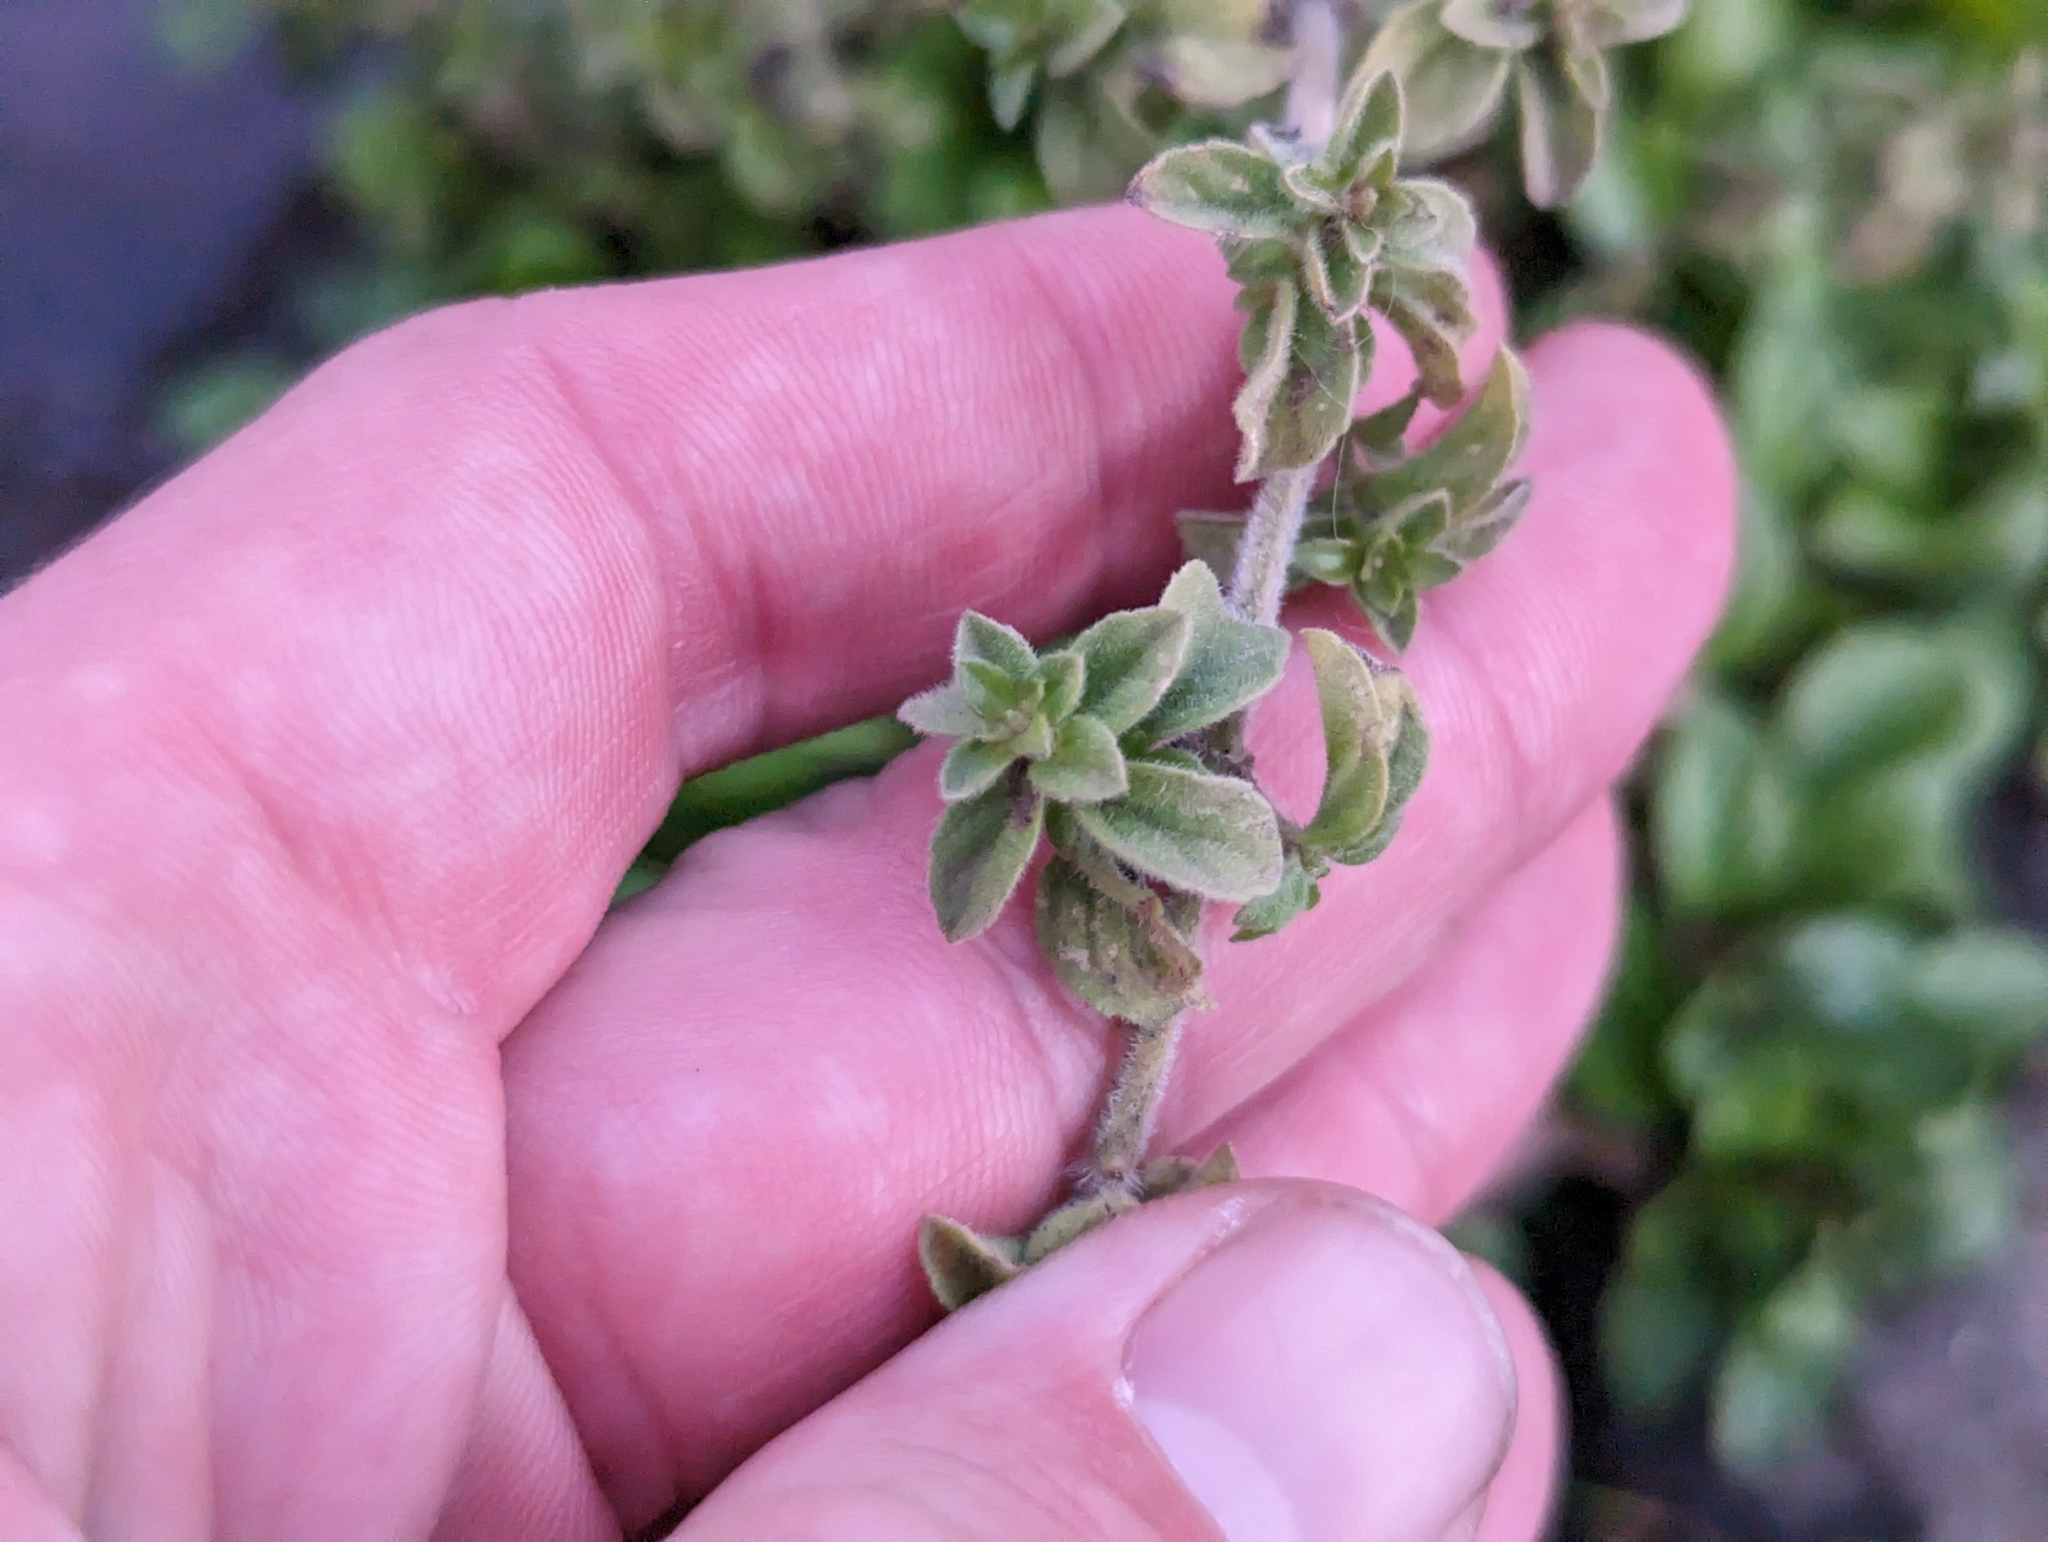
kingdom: Plantae
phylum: Tracheophyta
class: Magnoliopsida
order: Lamiales
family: Lamiaceae
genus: Mentha
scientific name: Mentha pulegium
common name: Pennyroyal
